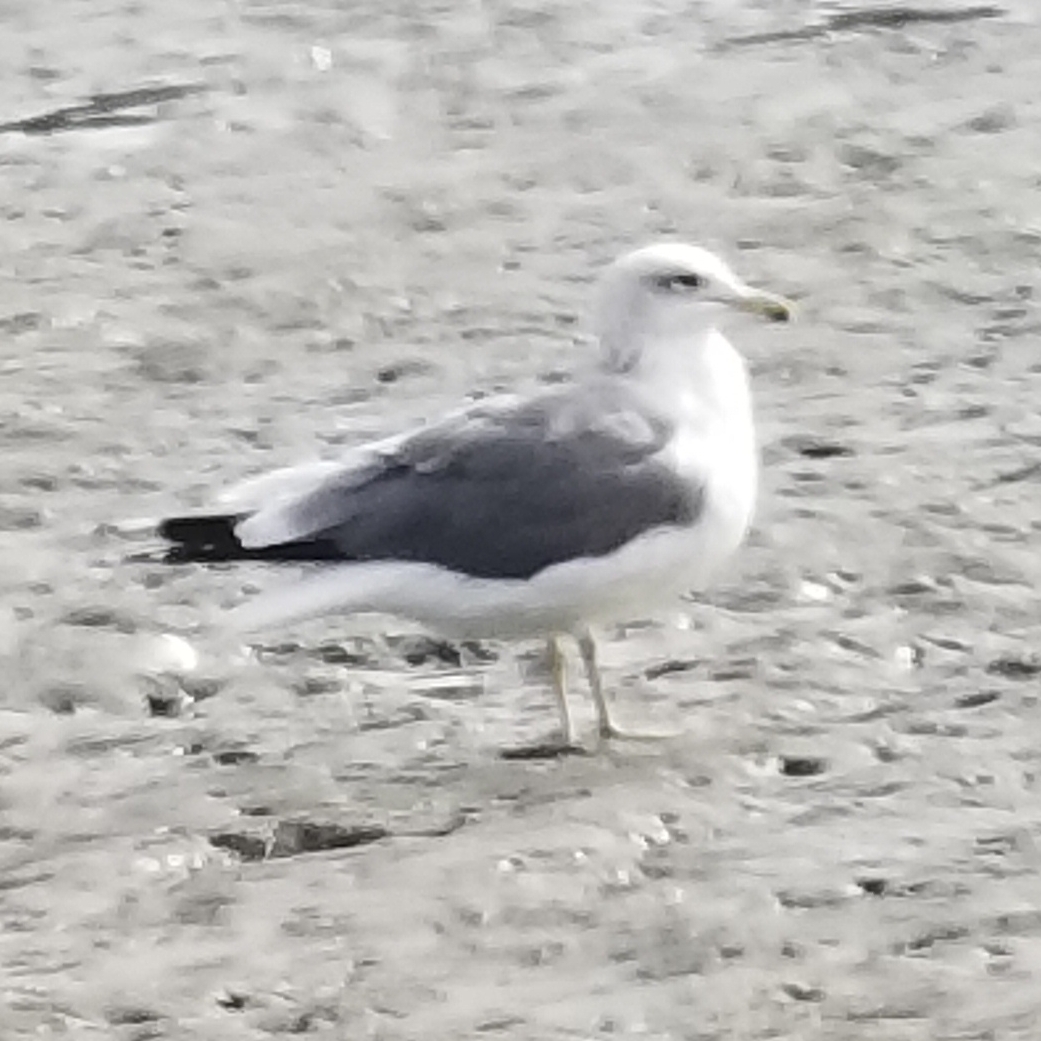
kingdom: Animalia
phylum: Chordata
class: Aves
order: Charadriiformes
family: Laridae
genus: Larus
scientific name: Larus californicus
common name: California gull
